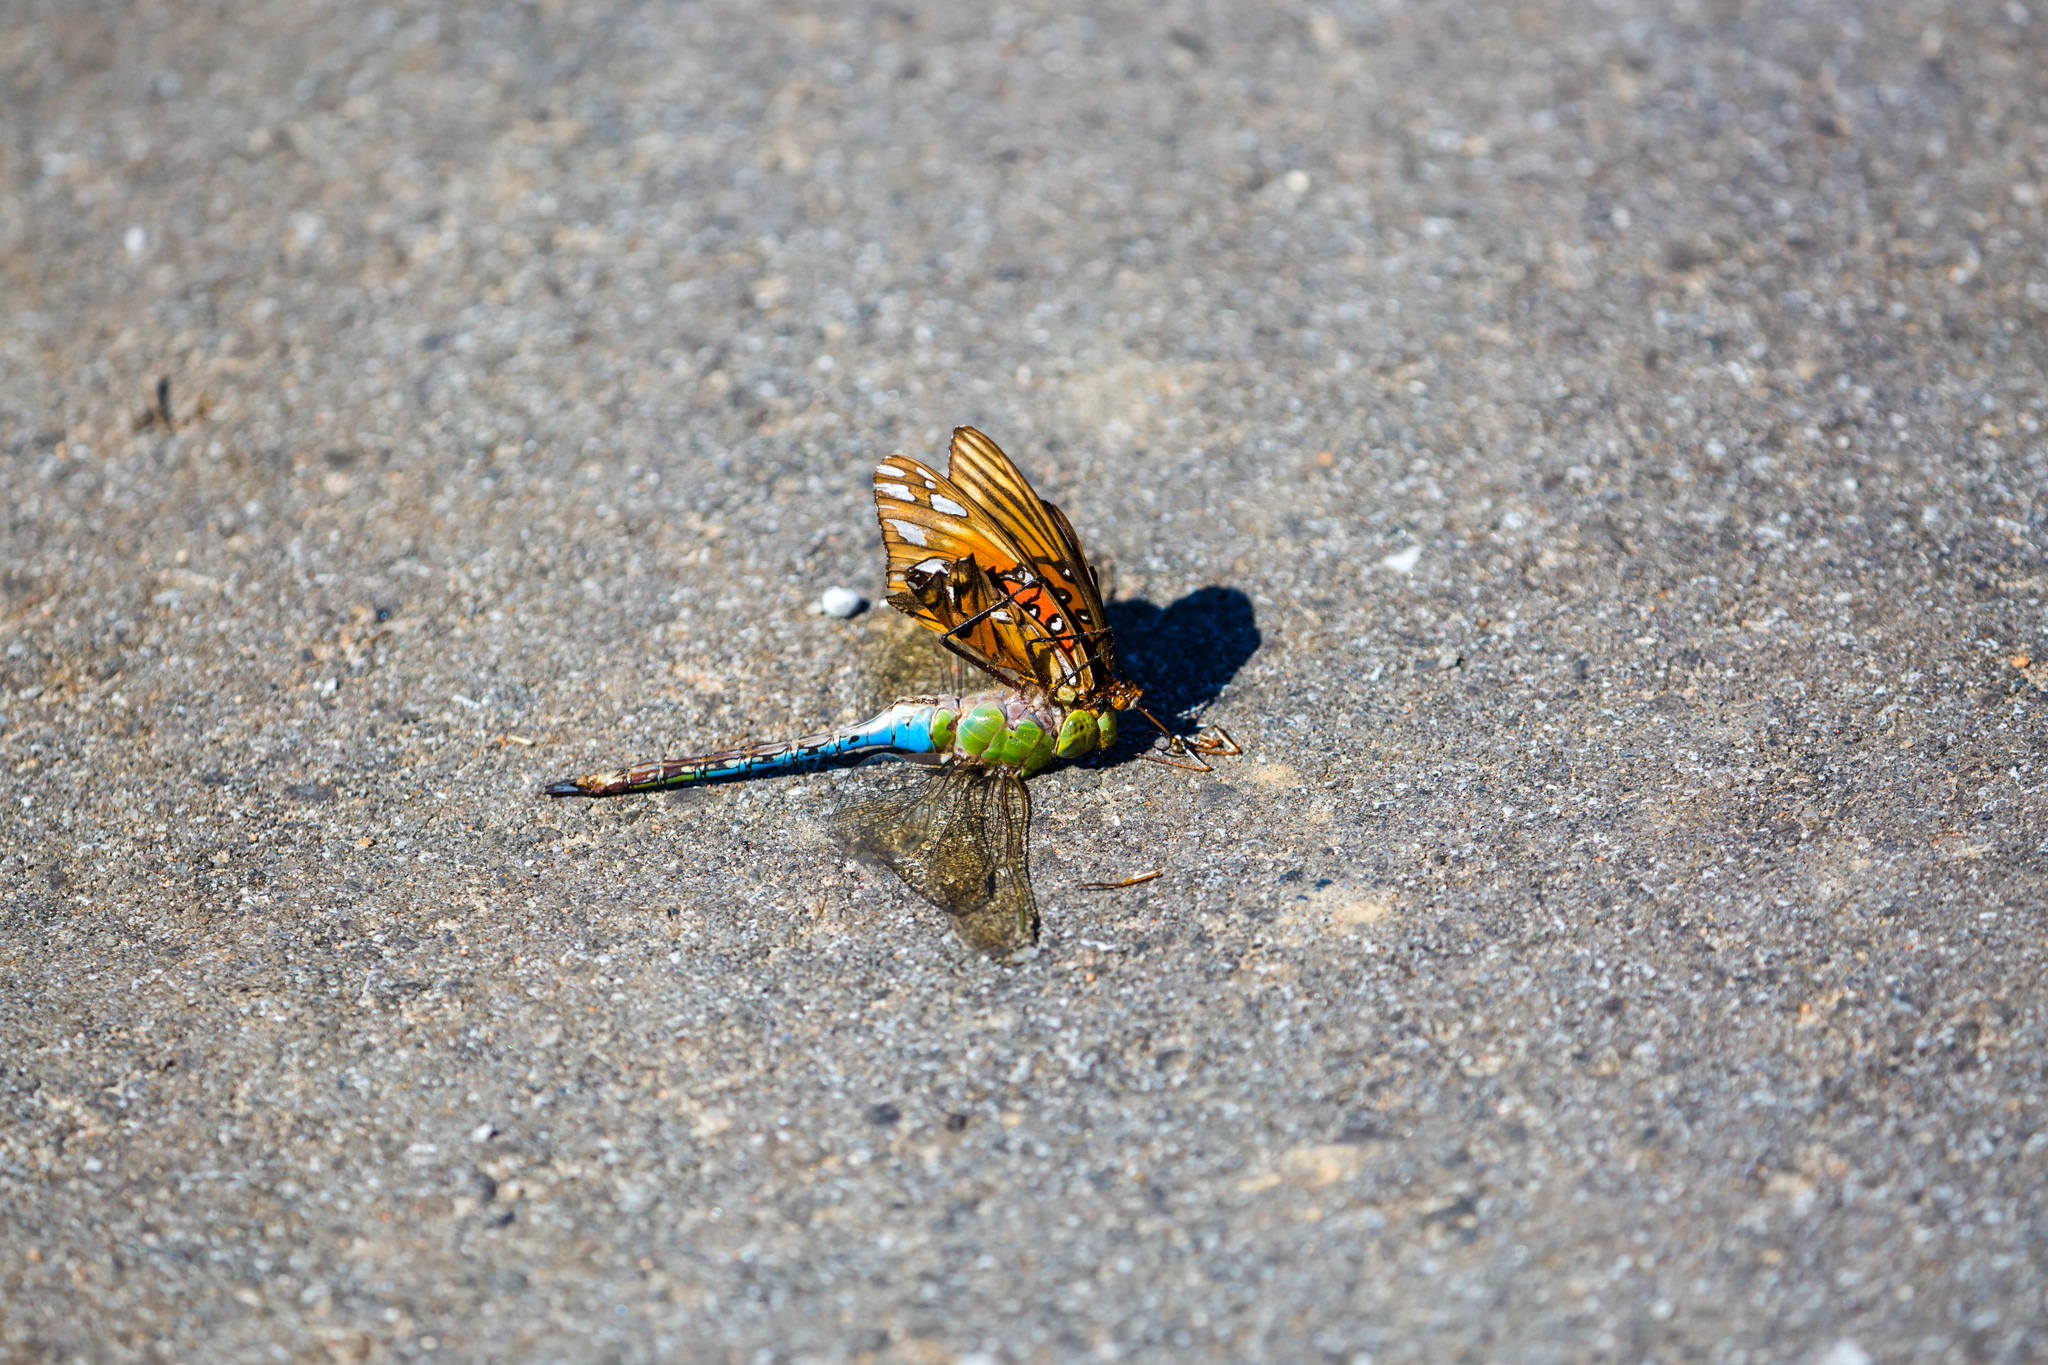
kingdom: Animalia
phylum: Arthropoda
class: Insecta
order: Lepidoptera
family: Nymphalidae
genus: Dione
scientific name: Dione vanillae
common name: Gulf fritillary
